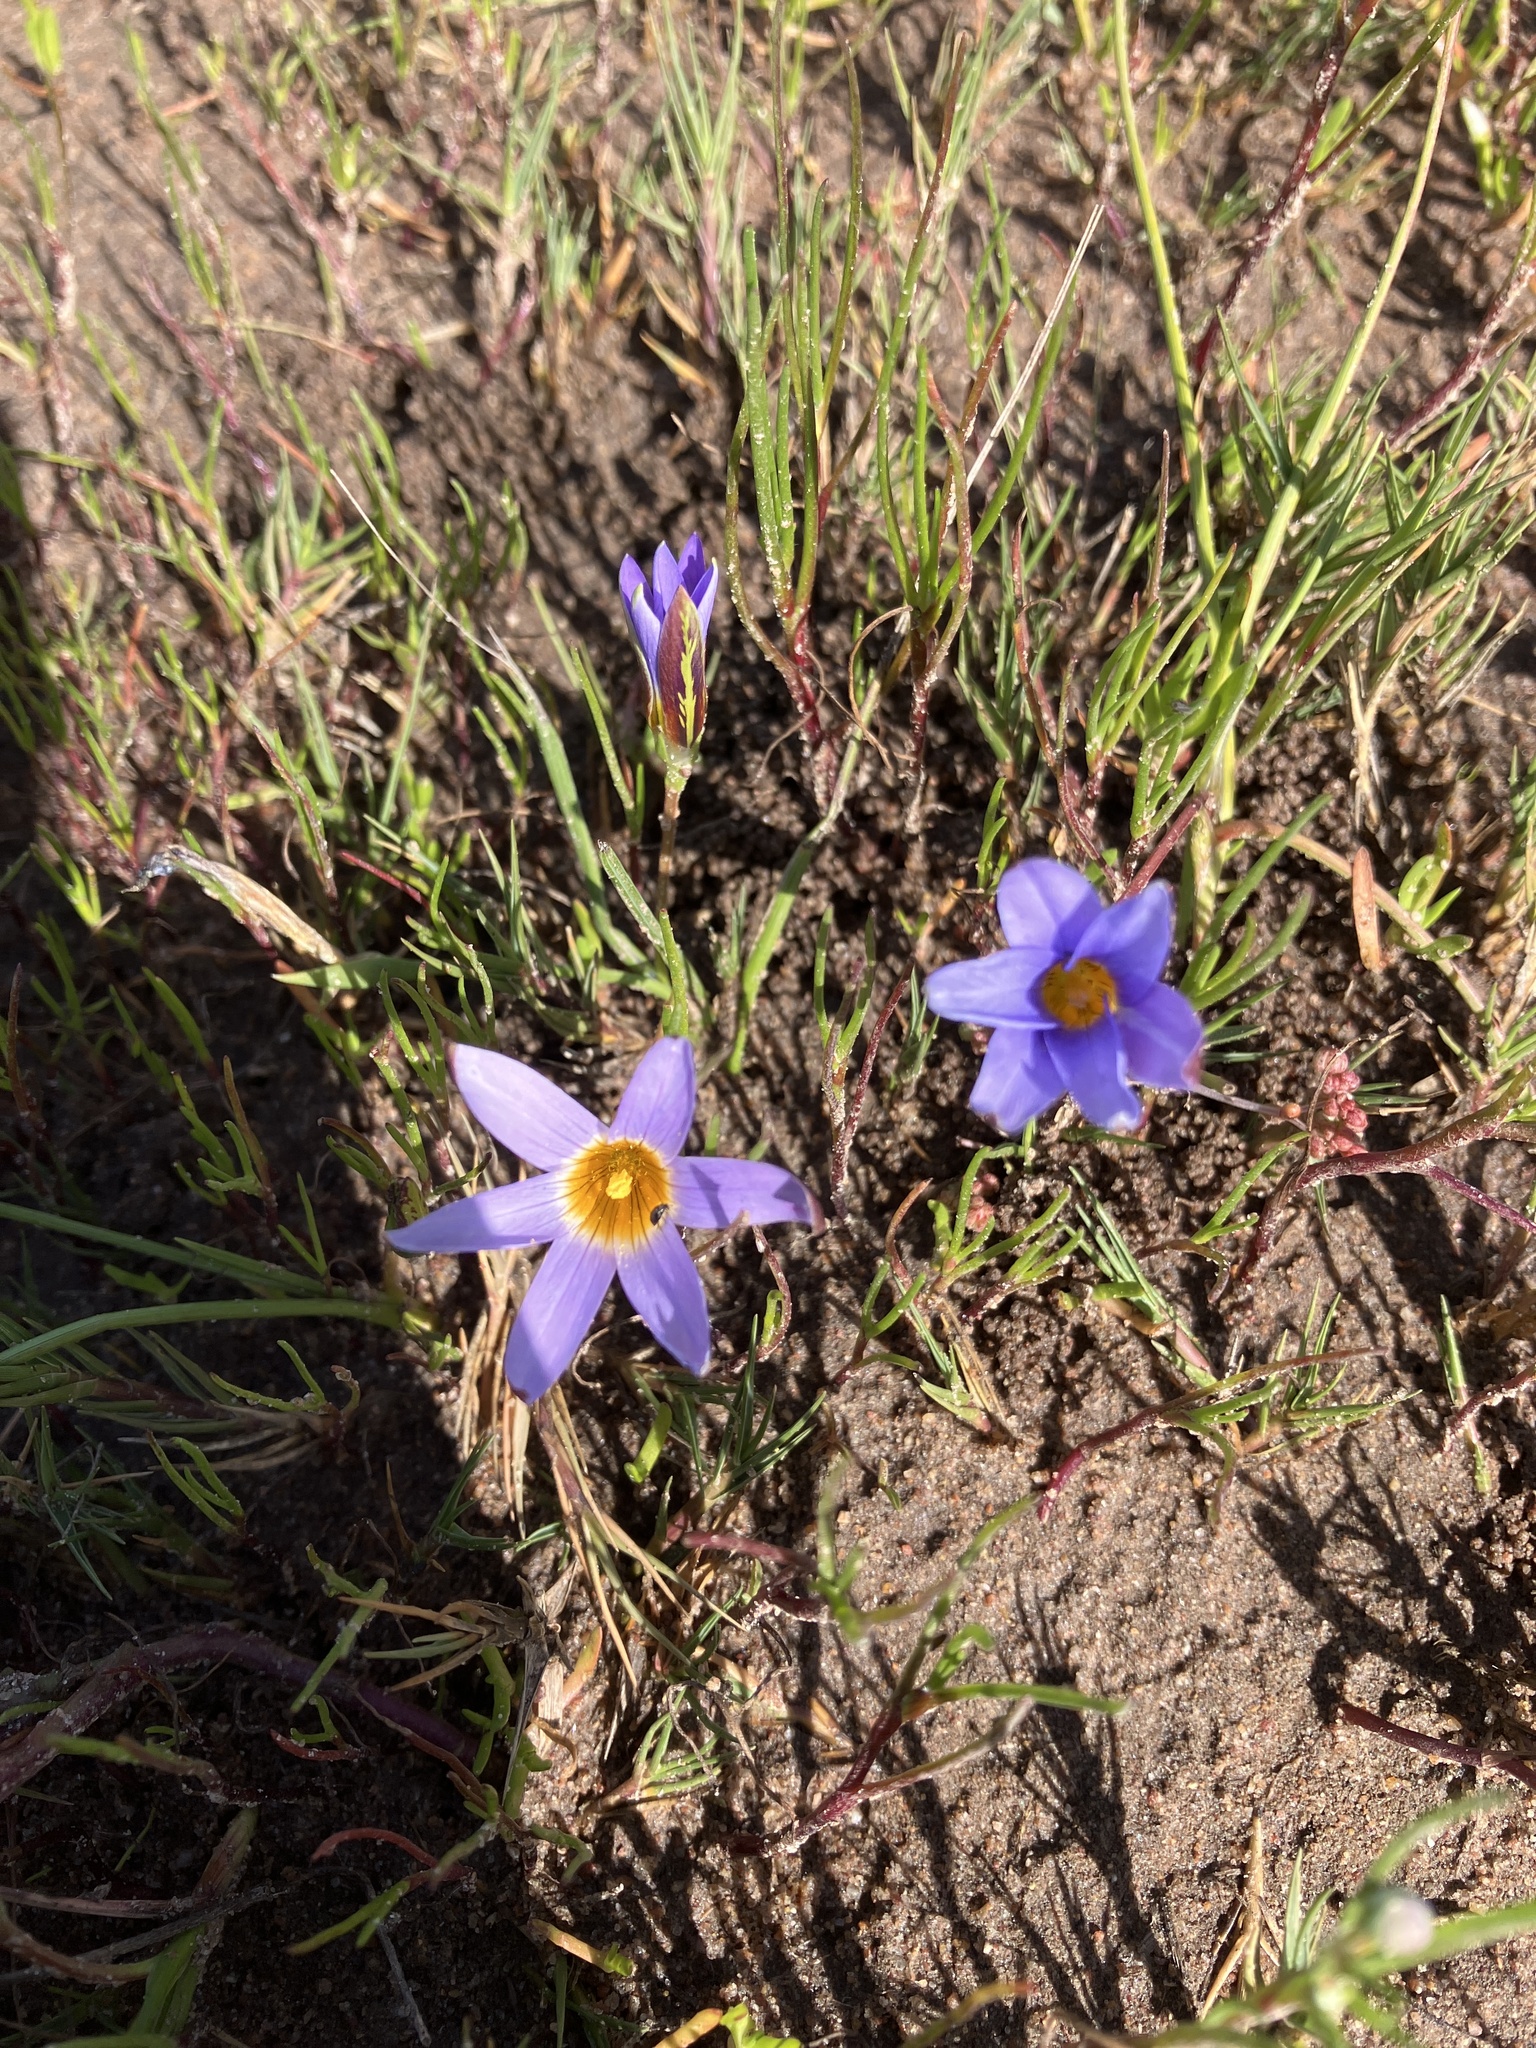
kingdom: Plantae
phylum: Tracheophyta
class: Liliopsida
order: Asparagales
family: Iridaceae
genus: Romulea
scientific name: Romulea tabularis
